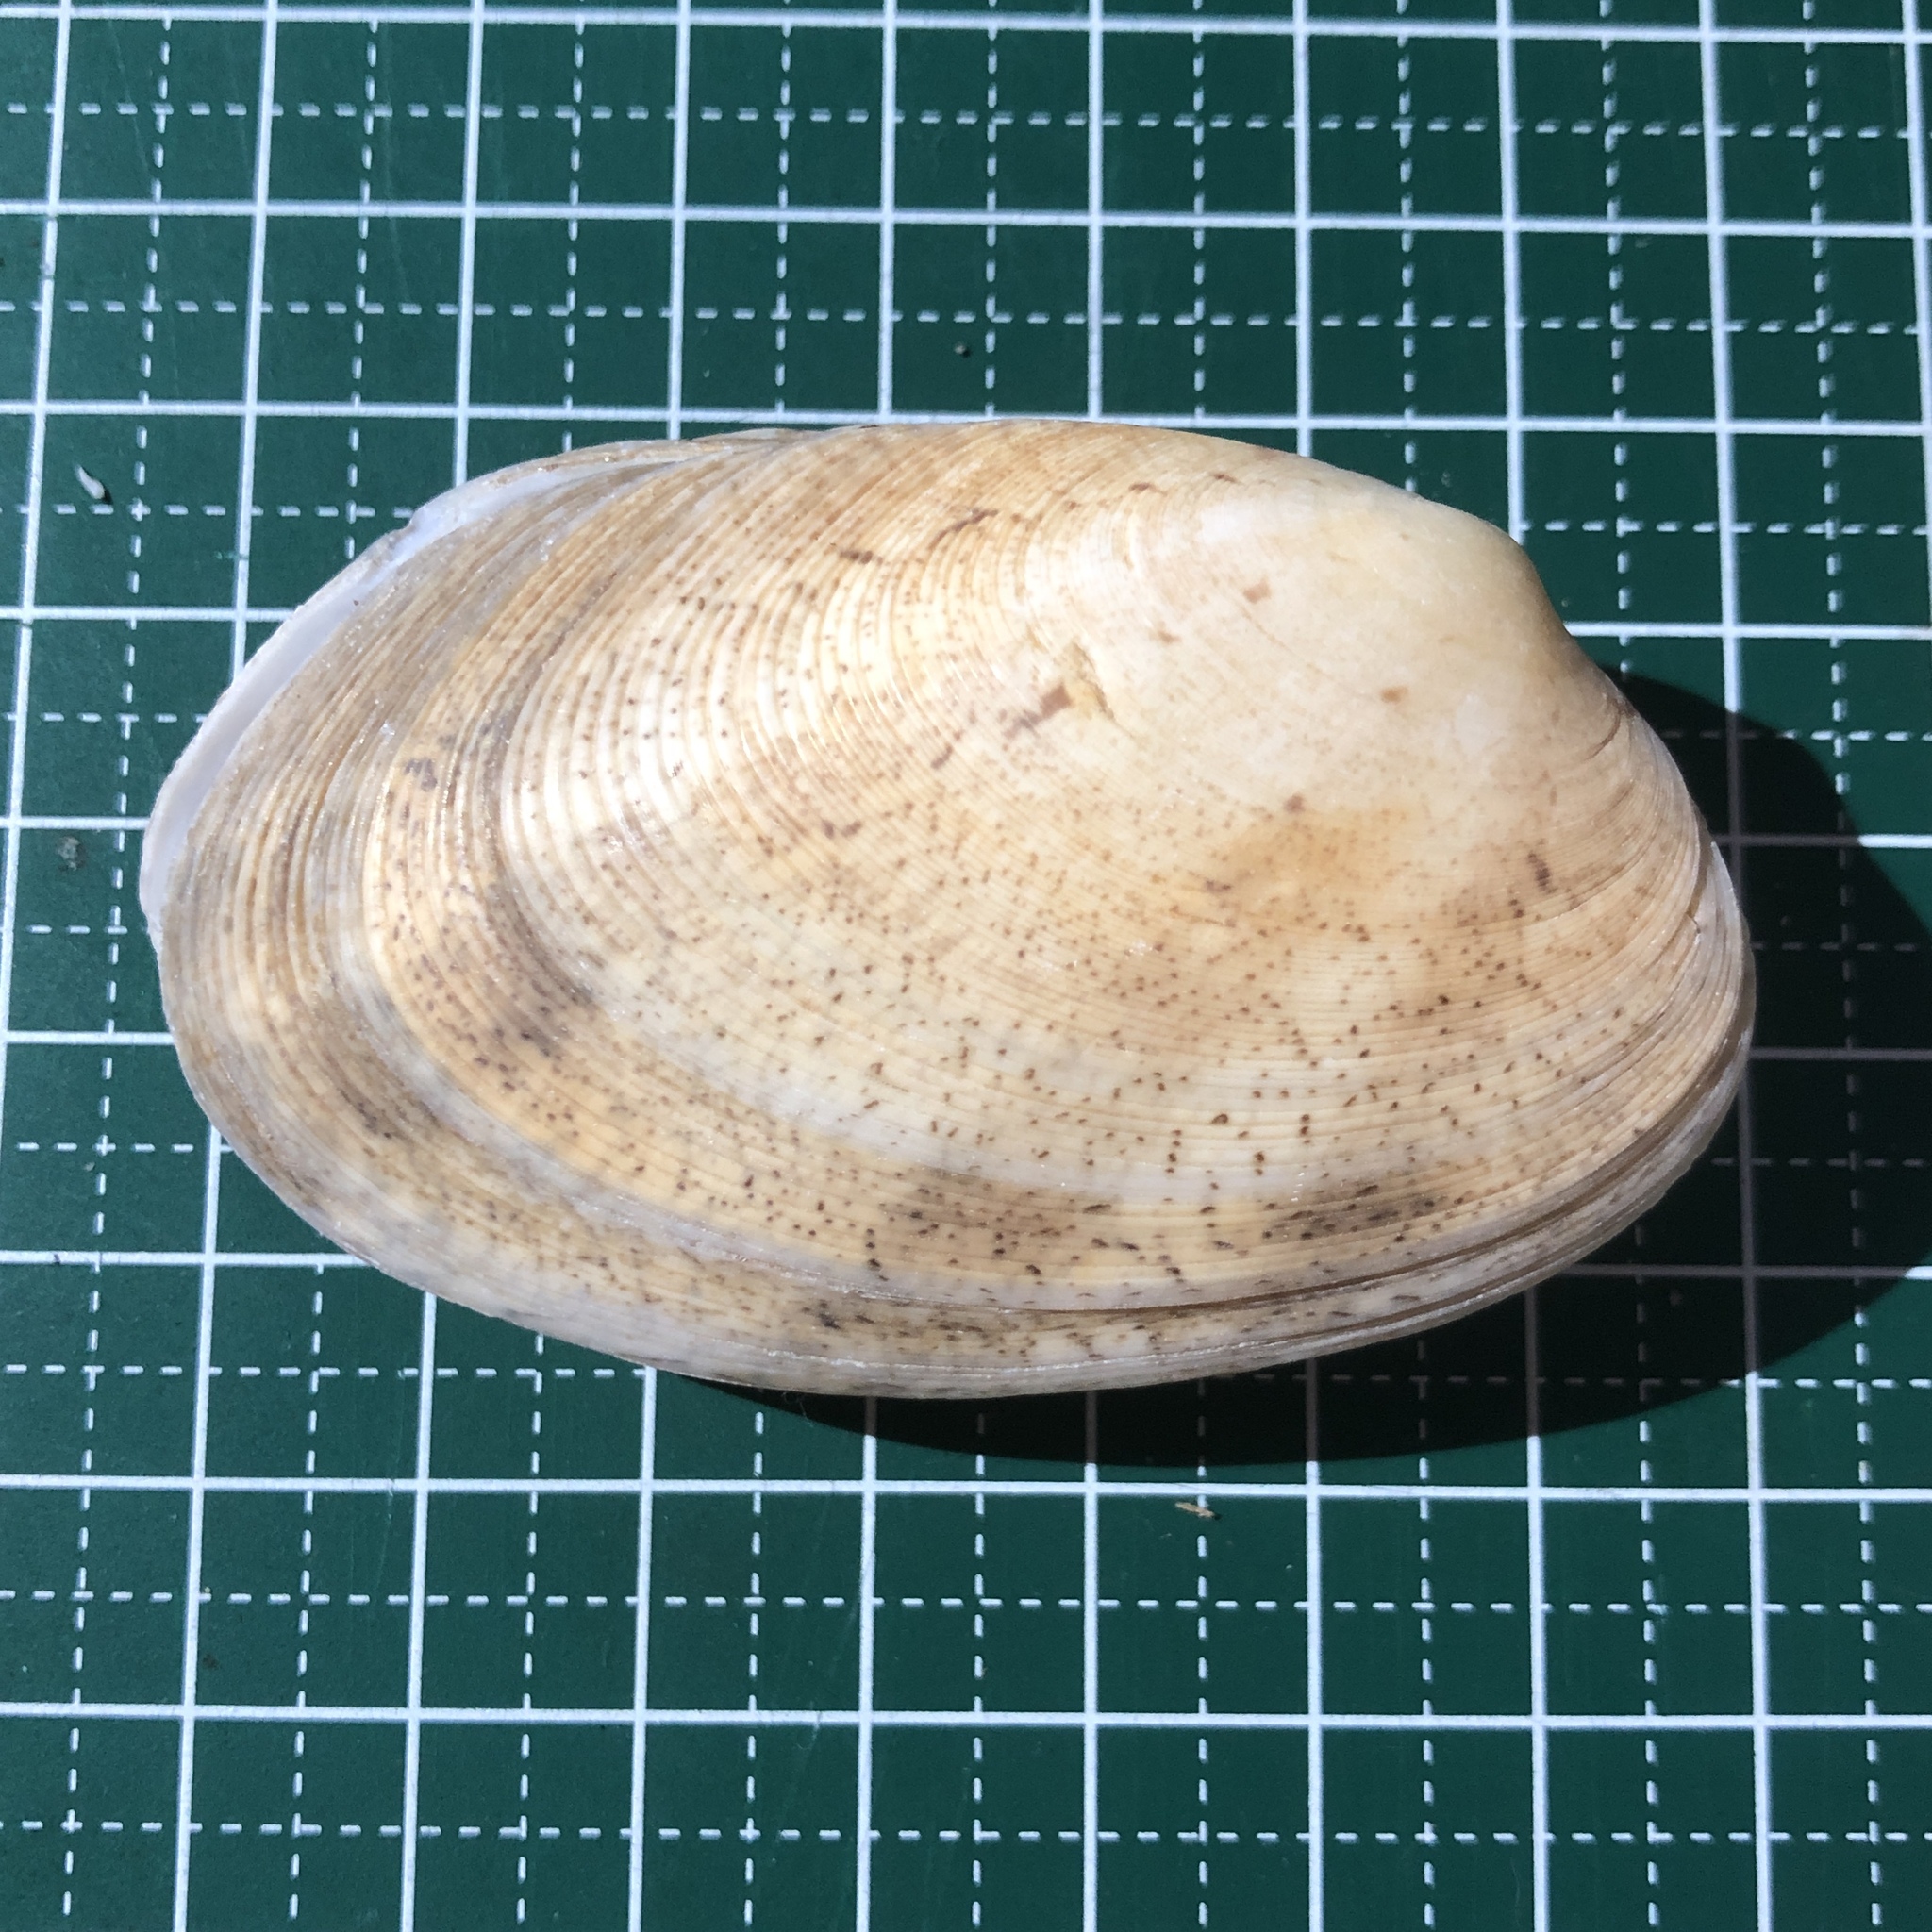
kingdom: Animalia
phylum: Mollusca
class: Bivalvia
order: Venerida
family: Veneridae
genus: Tapes
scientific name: Tapes literatus
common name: Lettered carpet shell
